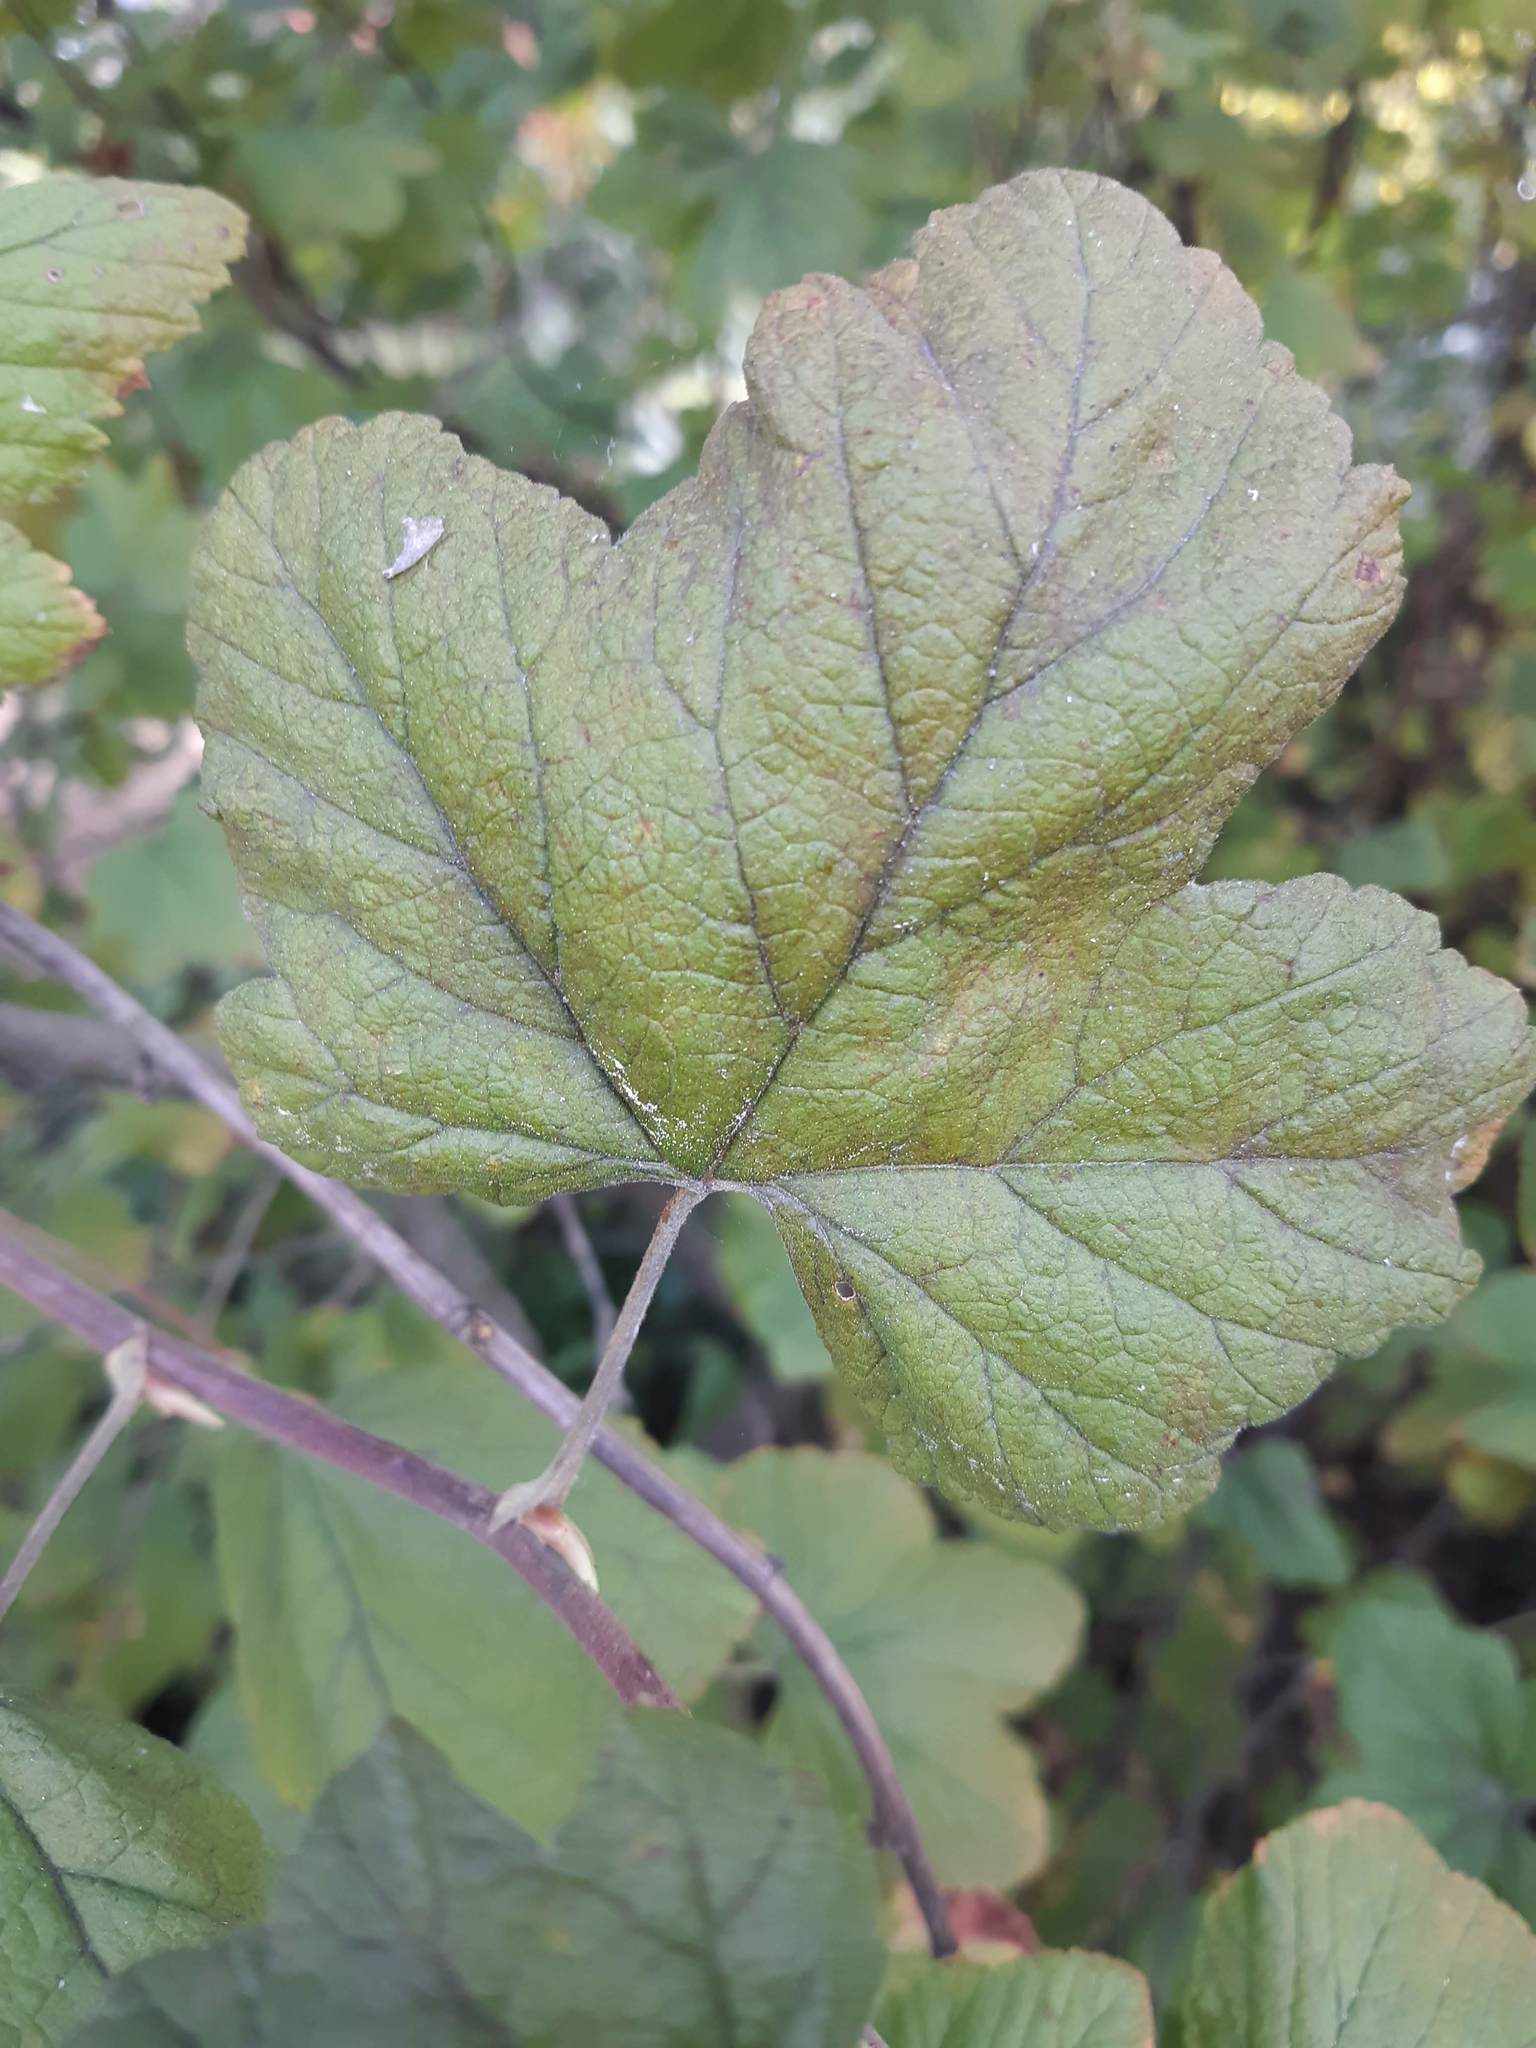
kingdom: Plantae
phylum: Tracheophyta
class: Magnoliopsida
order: Saxifragales
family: Grossulariaceae
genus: Ribes
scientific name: Ribes sanguineum
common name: Flowering currant
